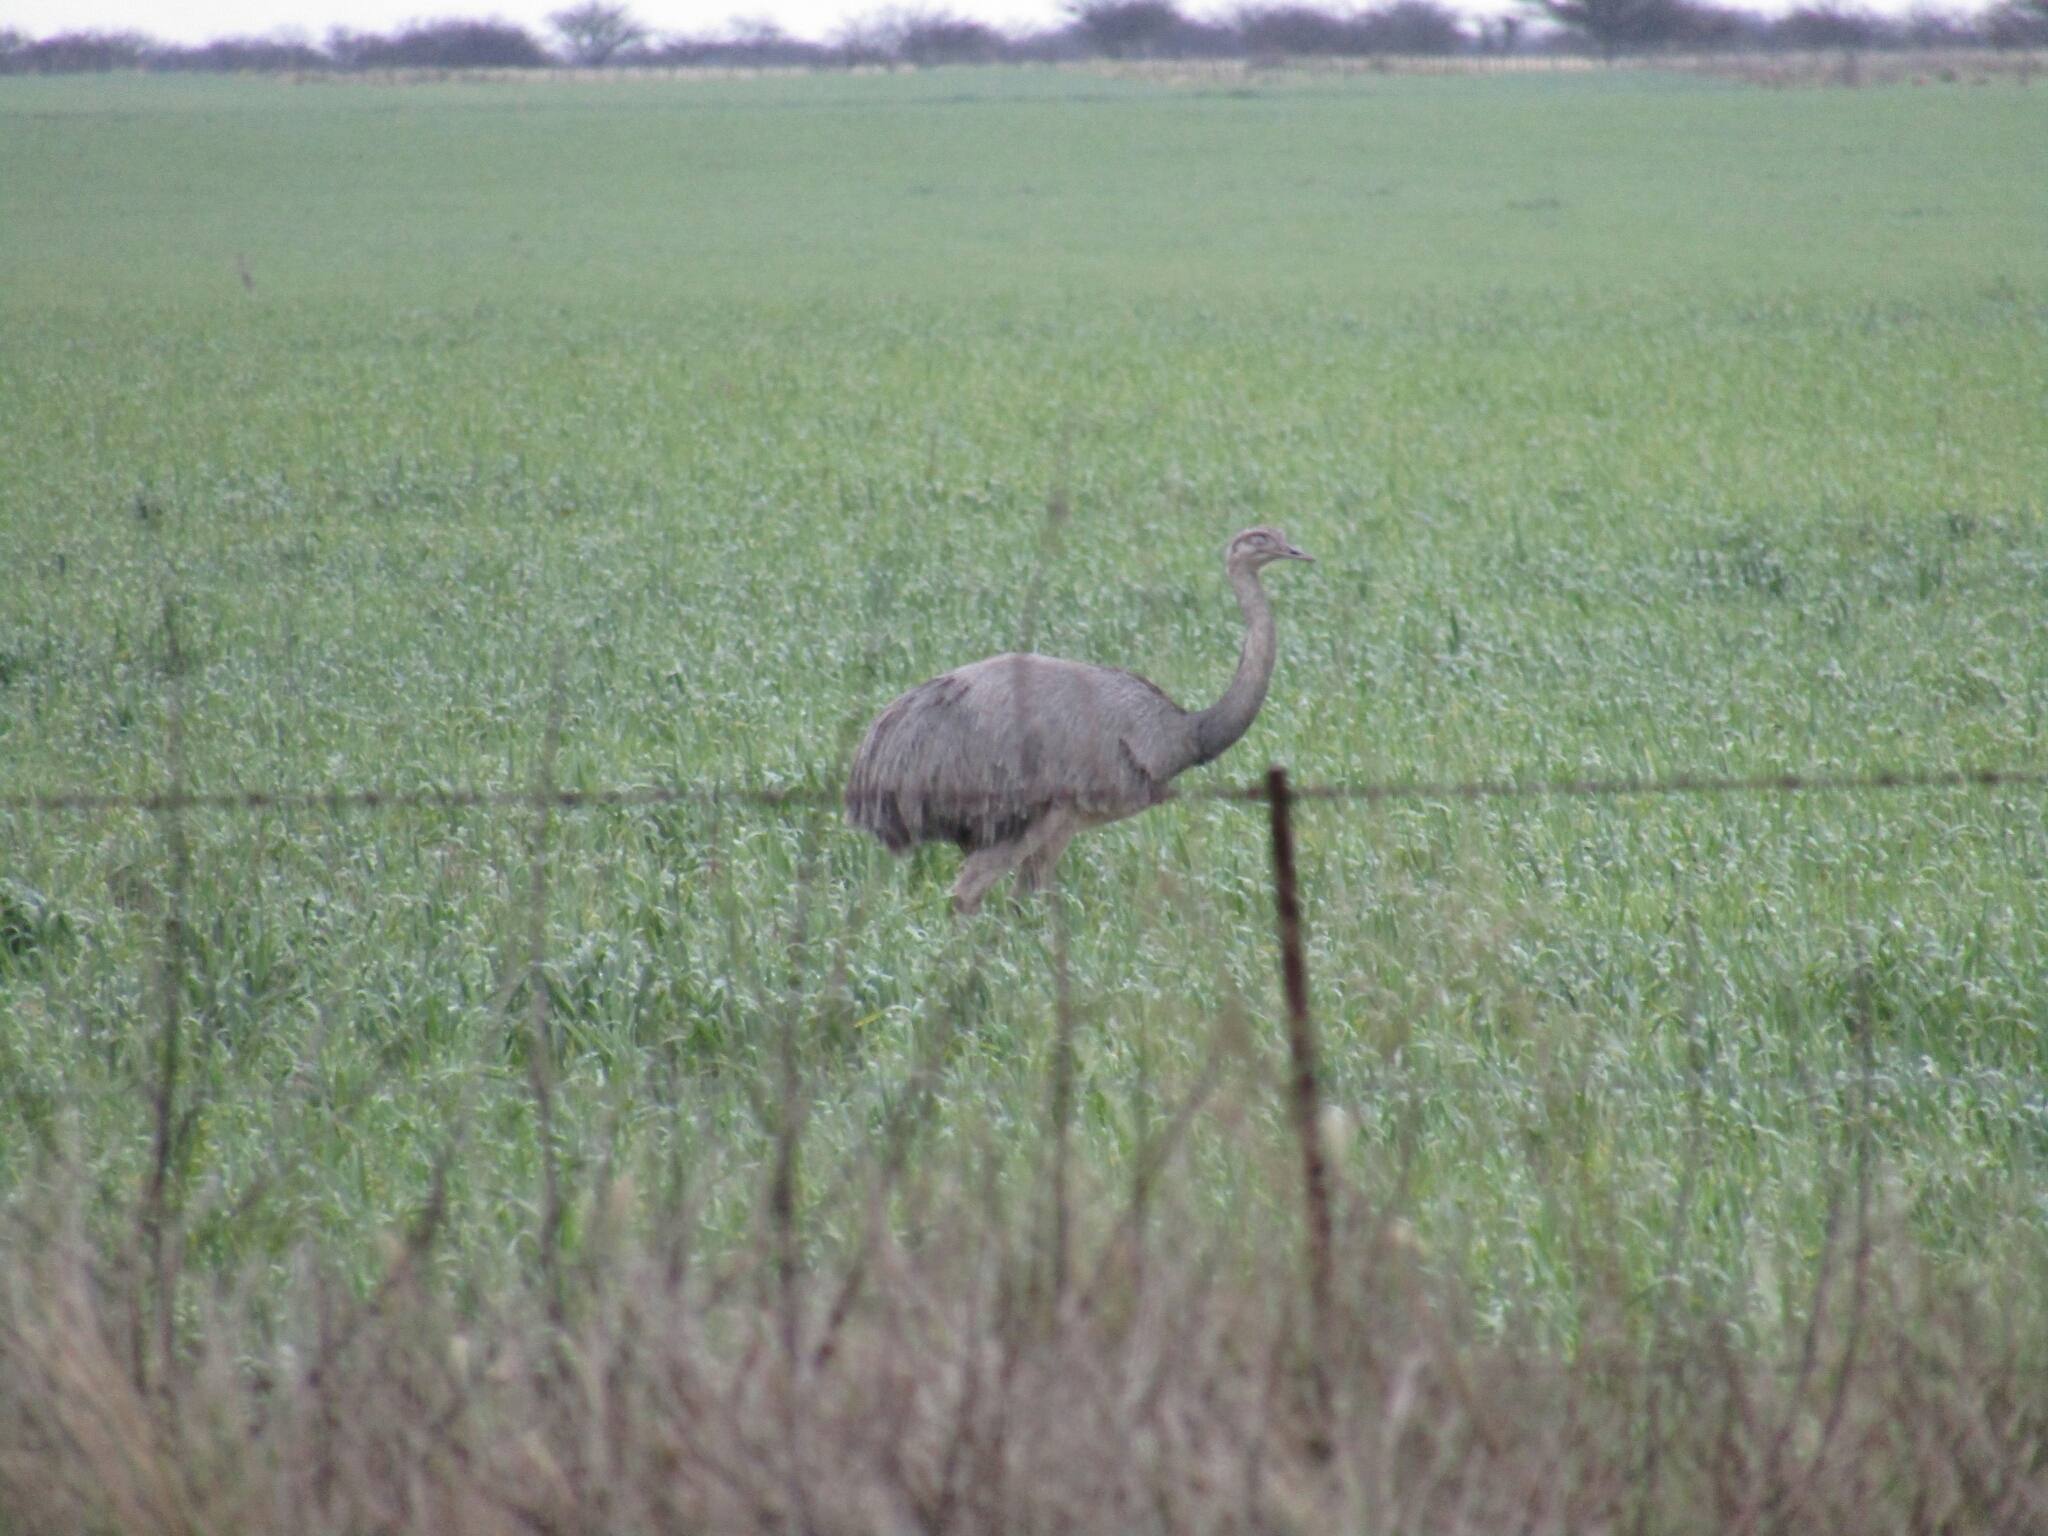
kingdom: Animalia
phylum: Chordata
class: Aves
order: Rheiformes
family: Rheidae
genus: Rhea
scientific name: Rhea americana
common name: Greater rhea
